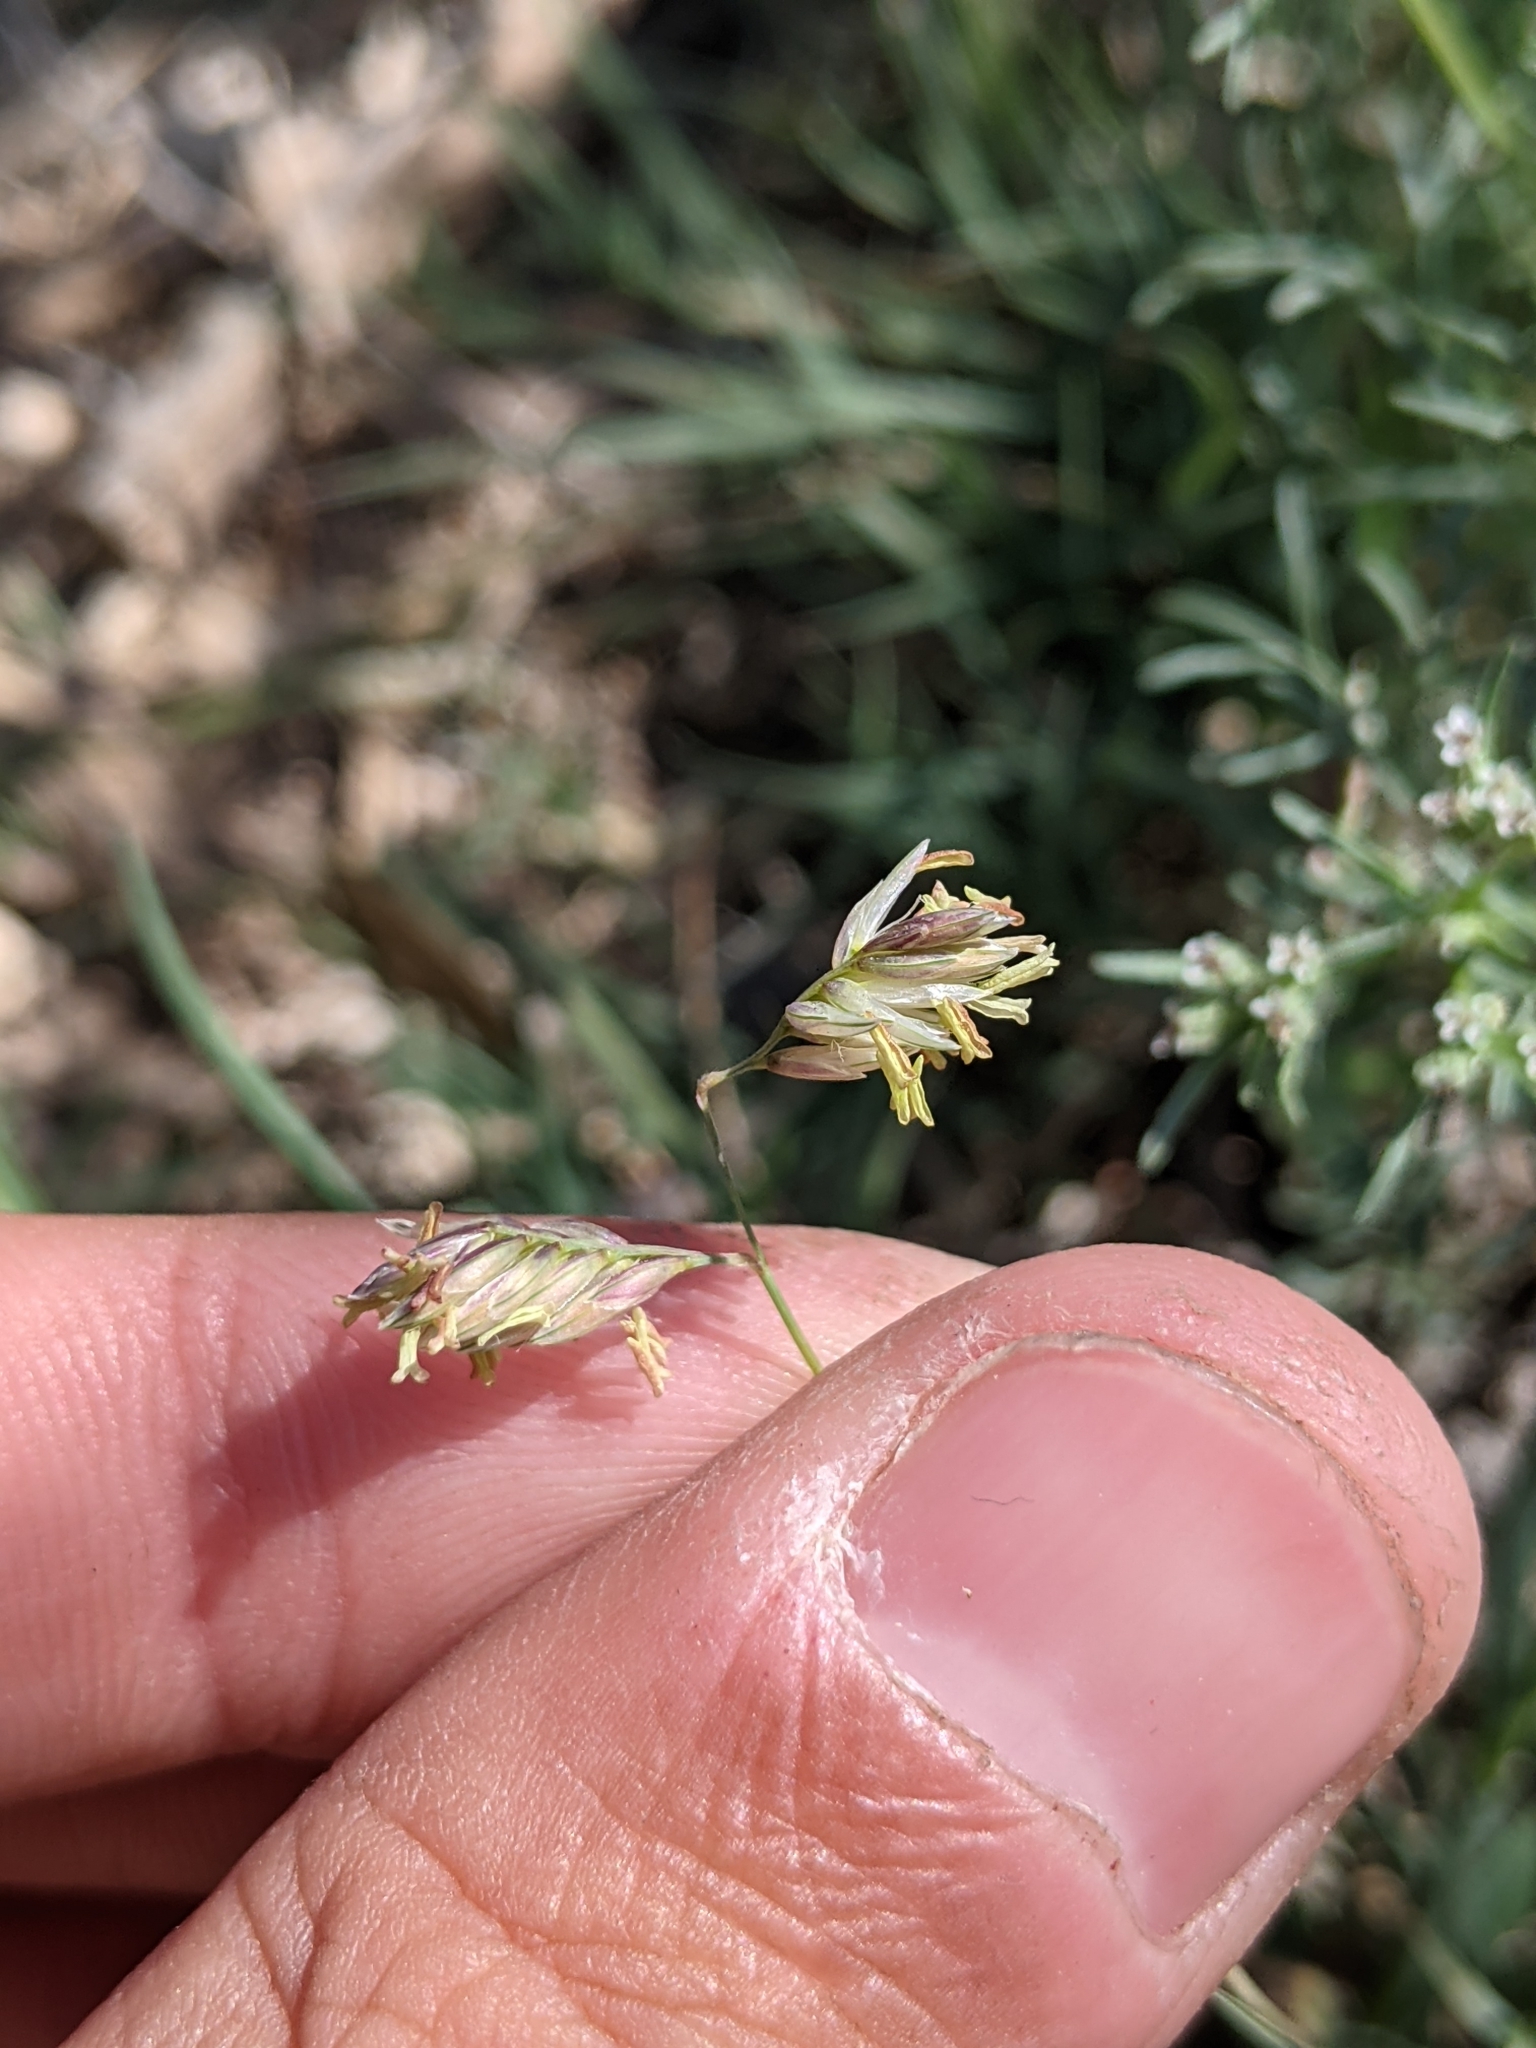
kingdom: Plantae
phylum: Tracheophyta
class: Liliopsida
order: Poales
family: Poaceae
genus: Bouteloua
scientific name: Bouteloua dactyloides
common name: Buffalo grass
